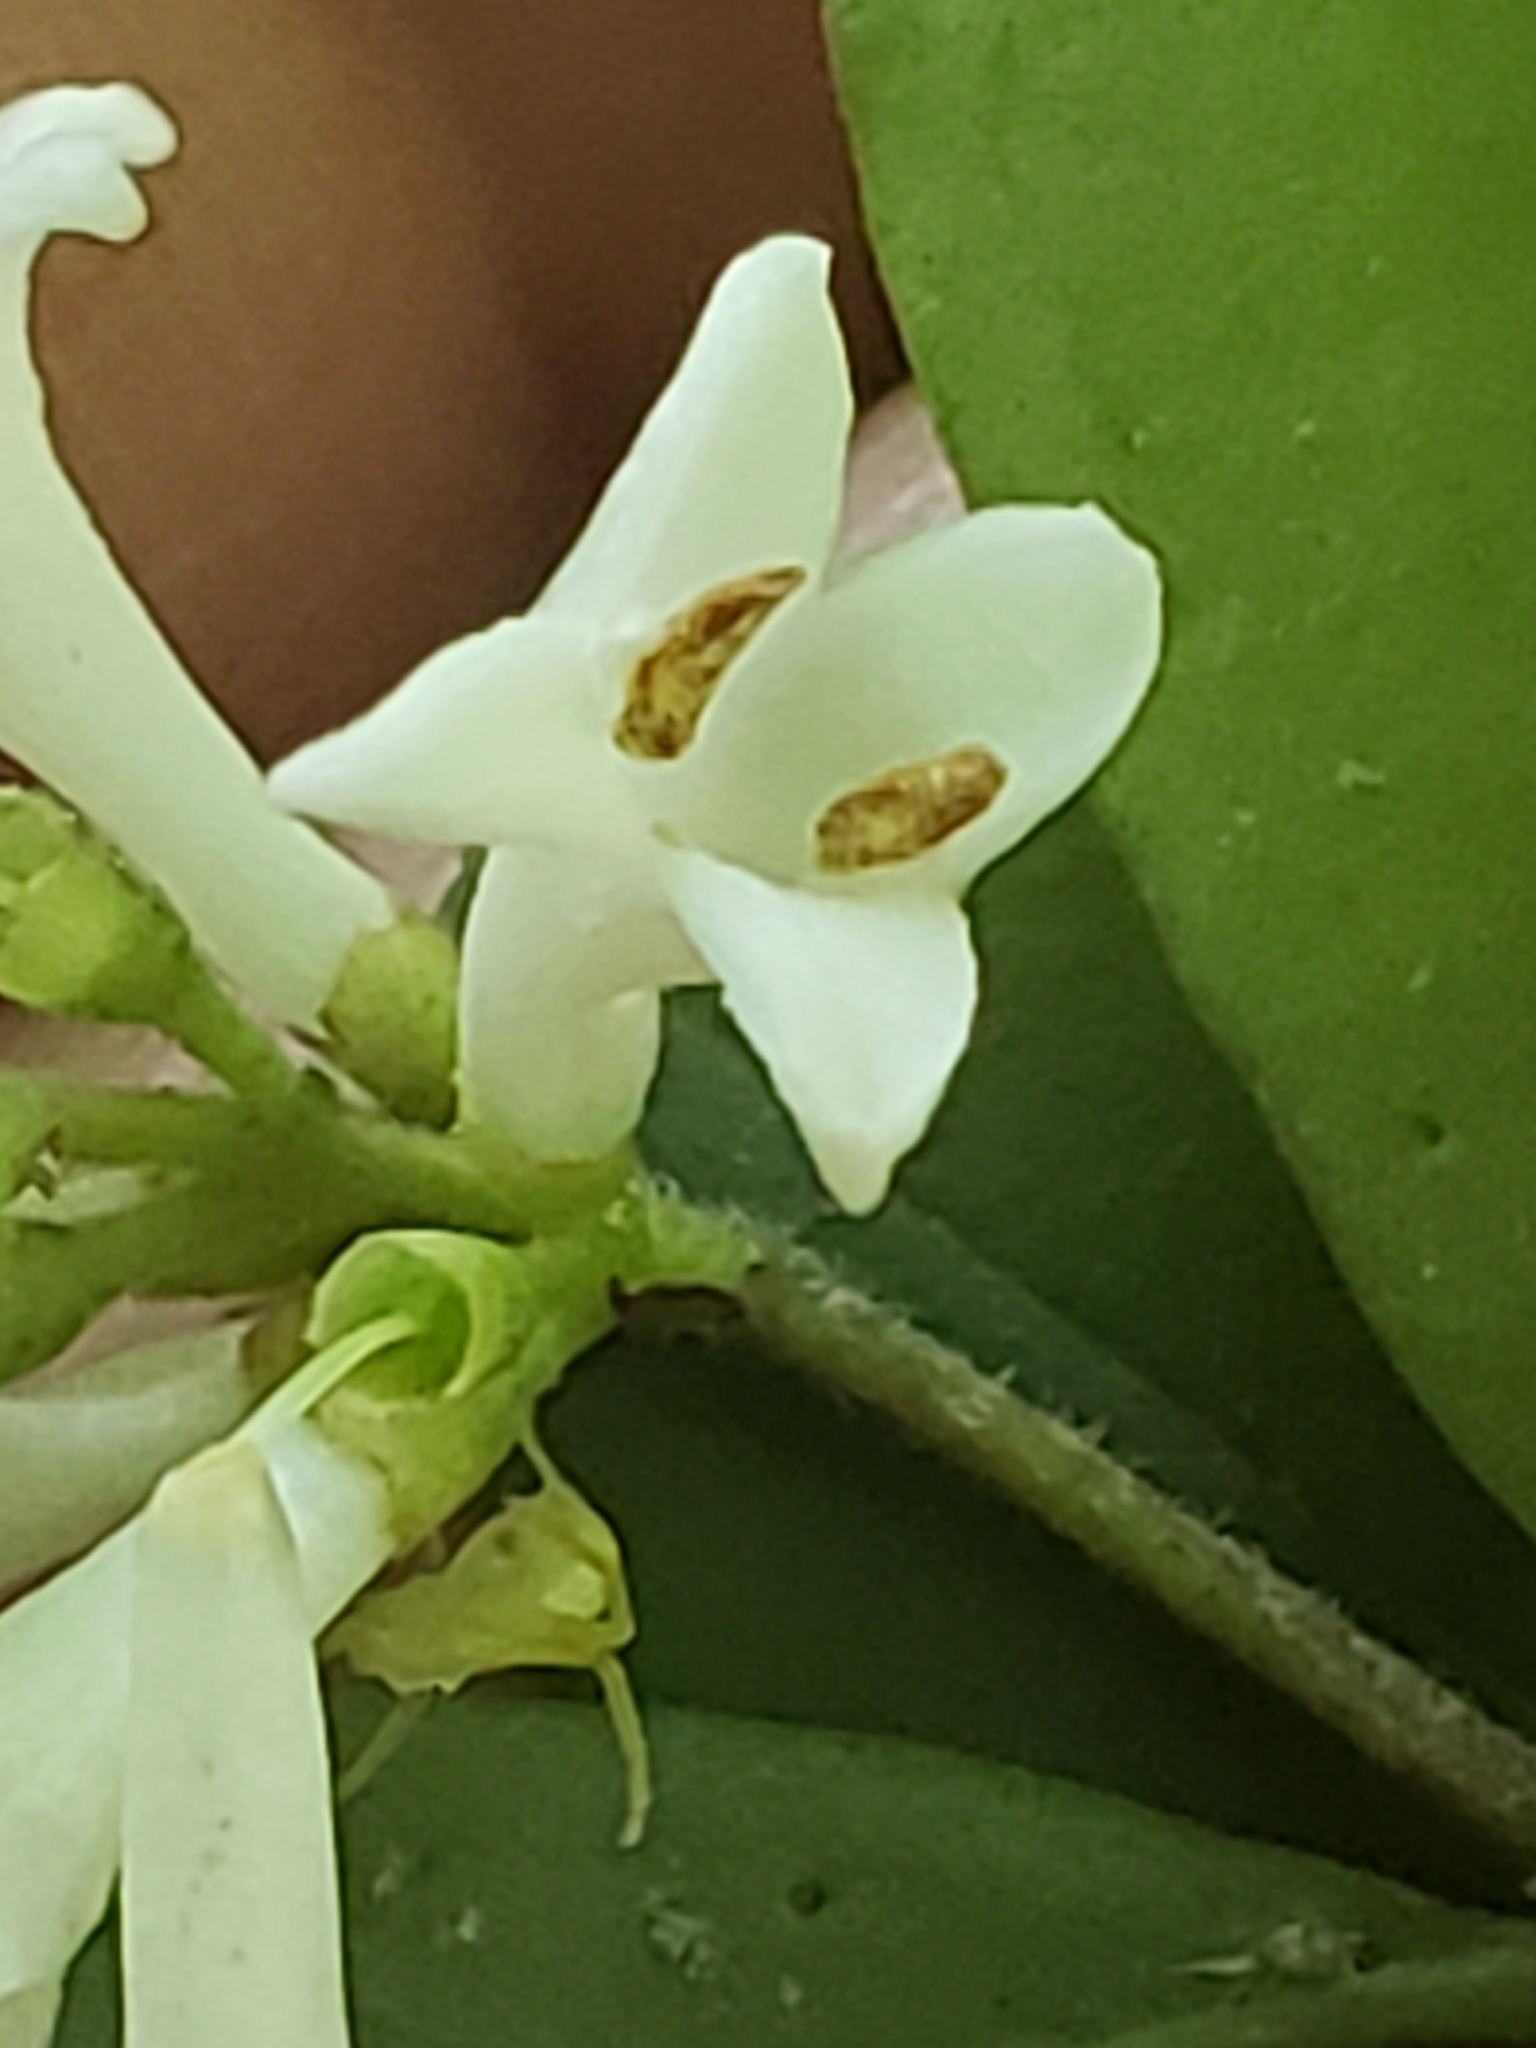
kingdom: Plantae
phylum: Tracheophyta
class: Magnoliopsida
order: Lamiales
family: Oleaceae
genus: Ligustrum
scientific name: Ligustrum obtusifolium
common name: Border privet
